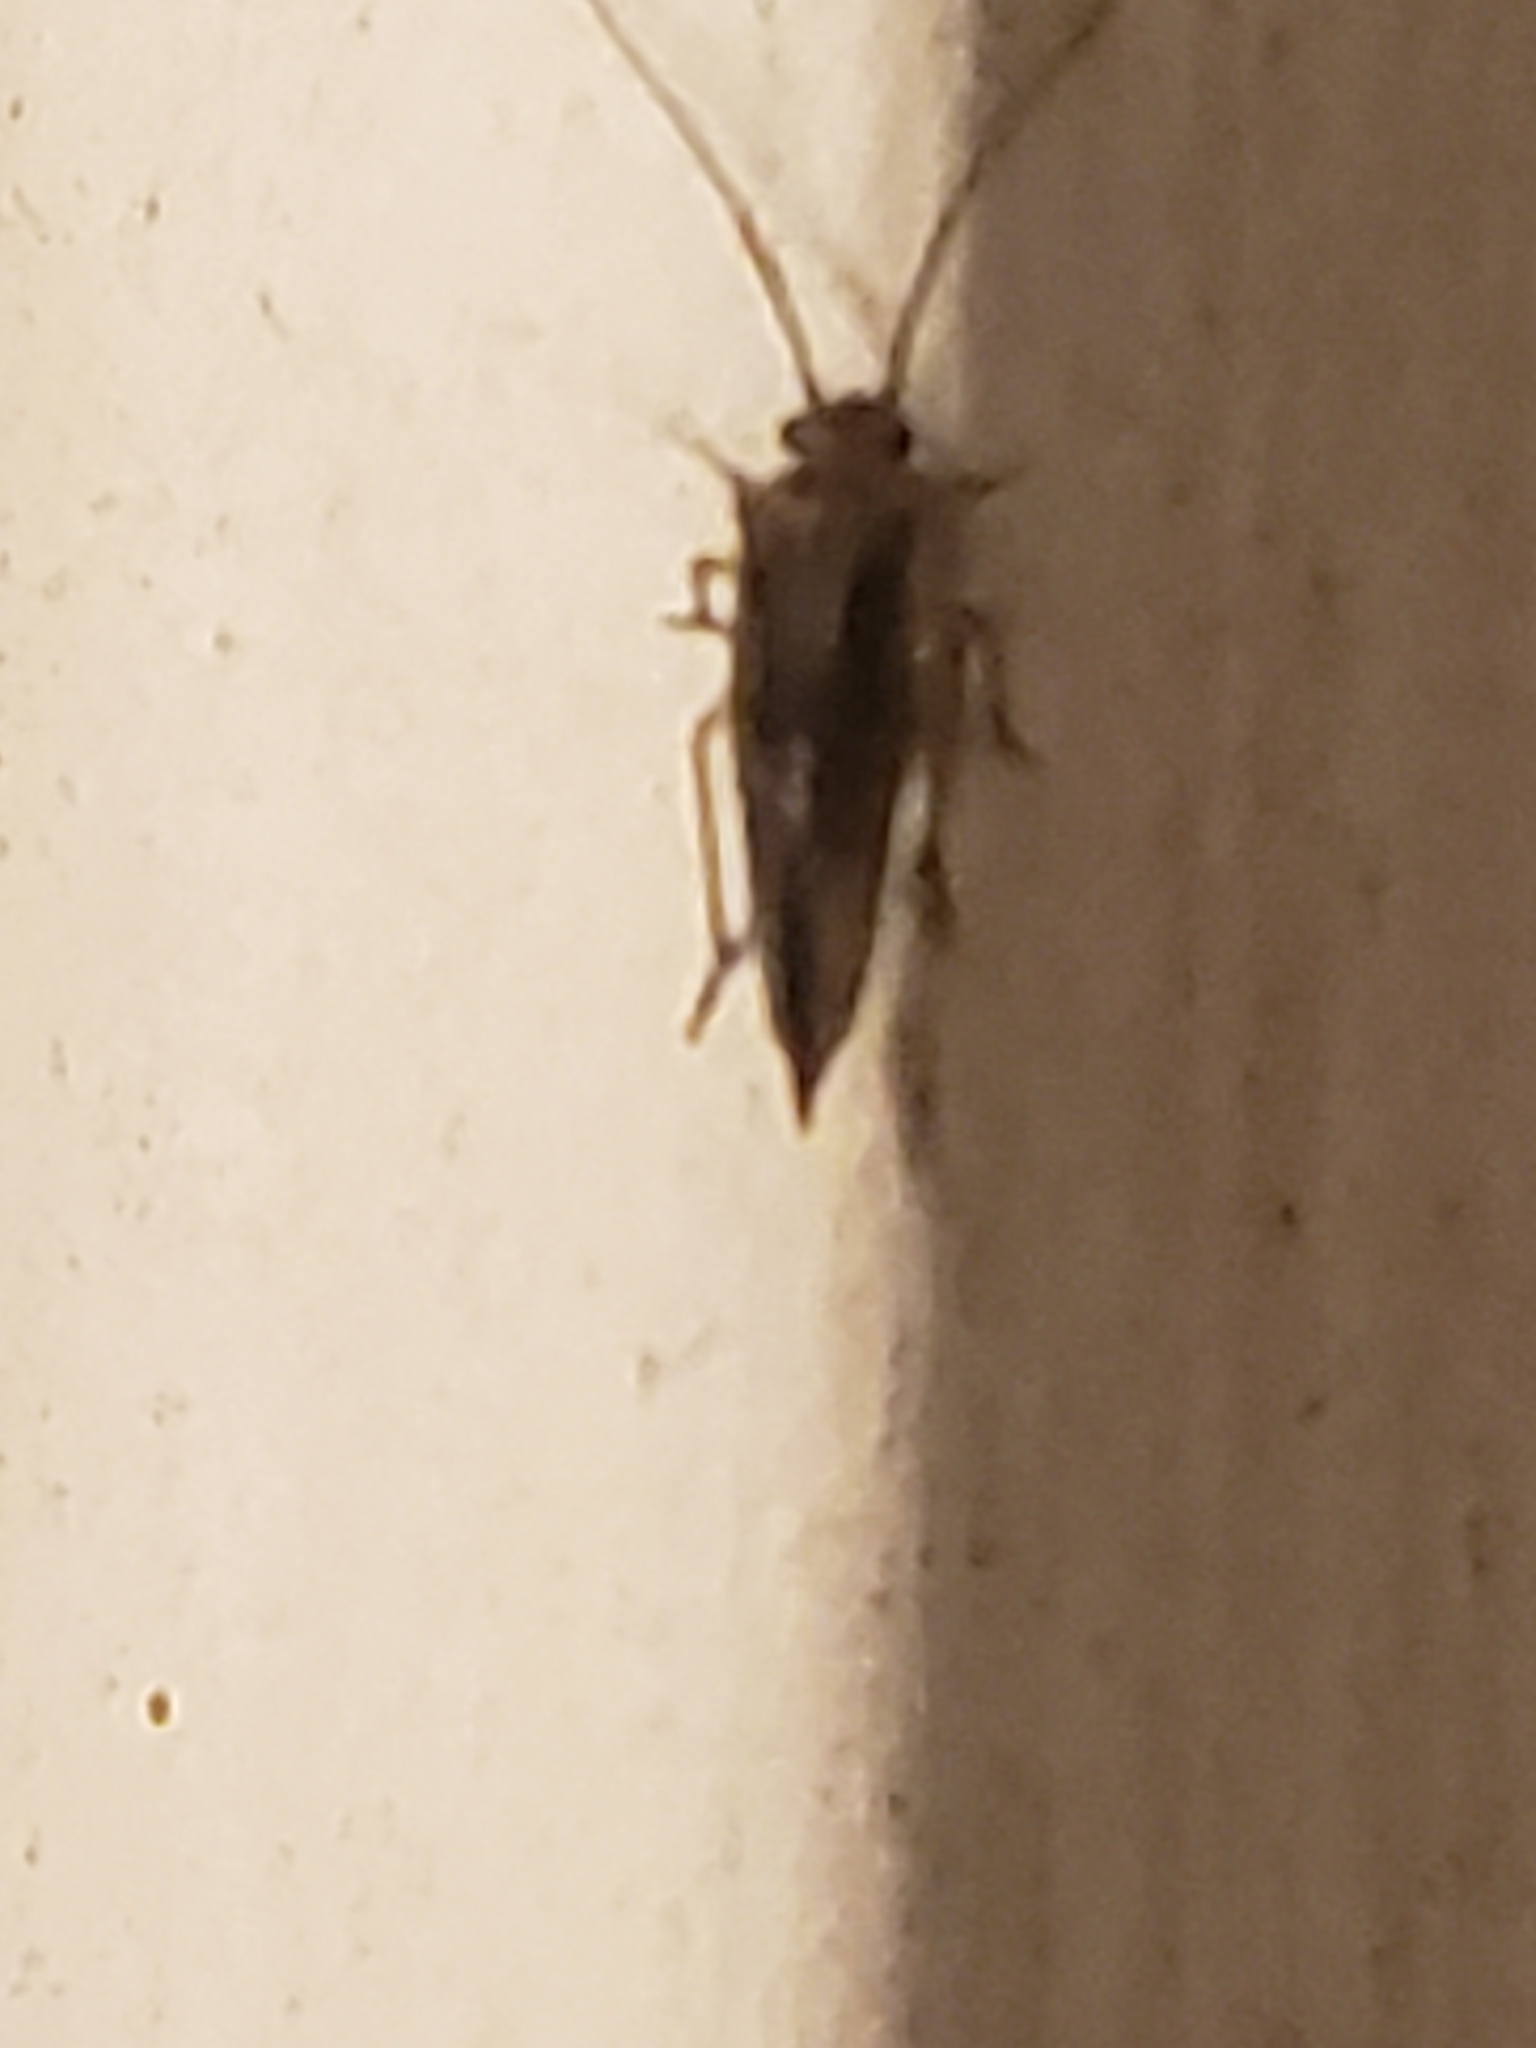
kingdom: Animalia
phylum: Arthropoda
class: Insecta
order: Psocodea
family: Psocidae
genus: Cerastipsocus
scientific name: Cerastipsocus venosus
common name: Tree cattle
